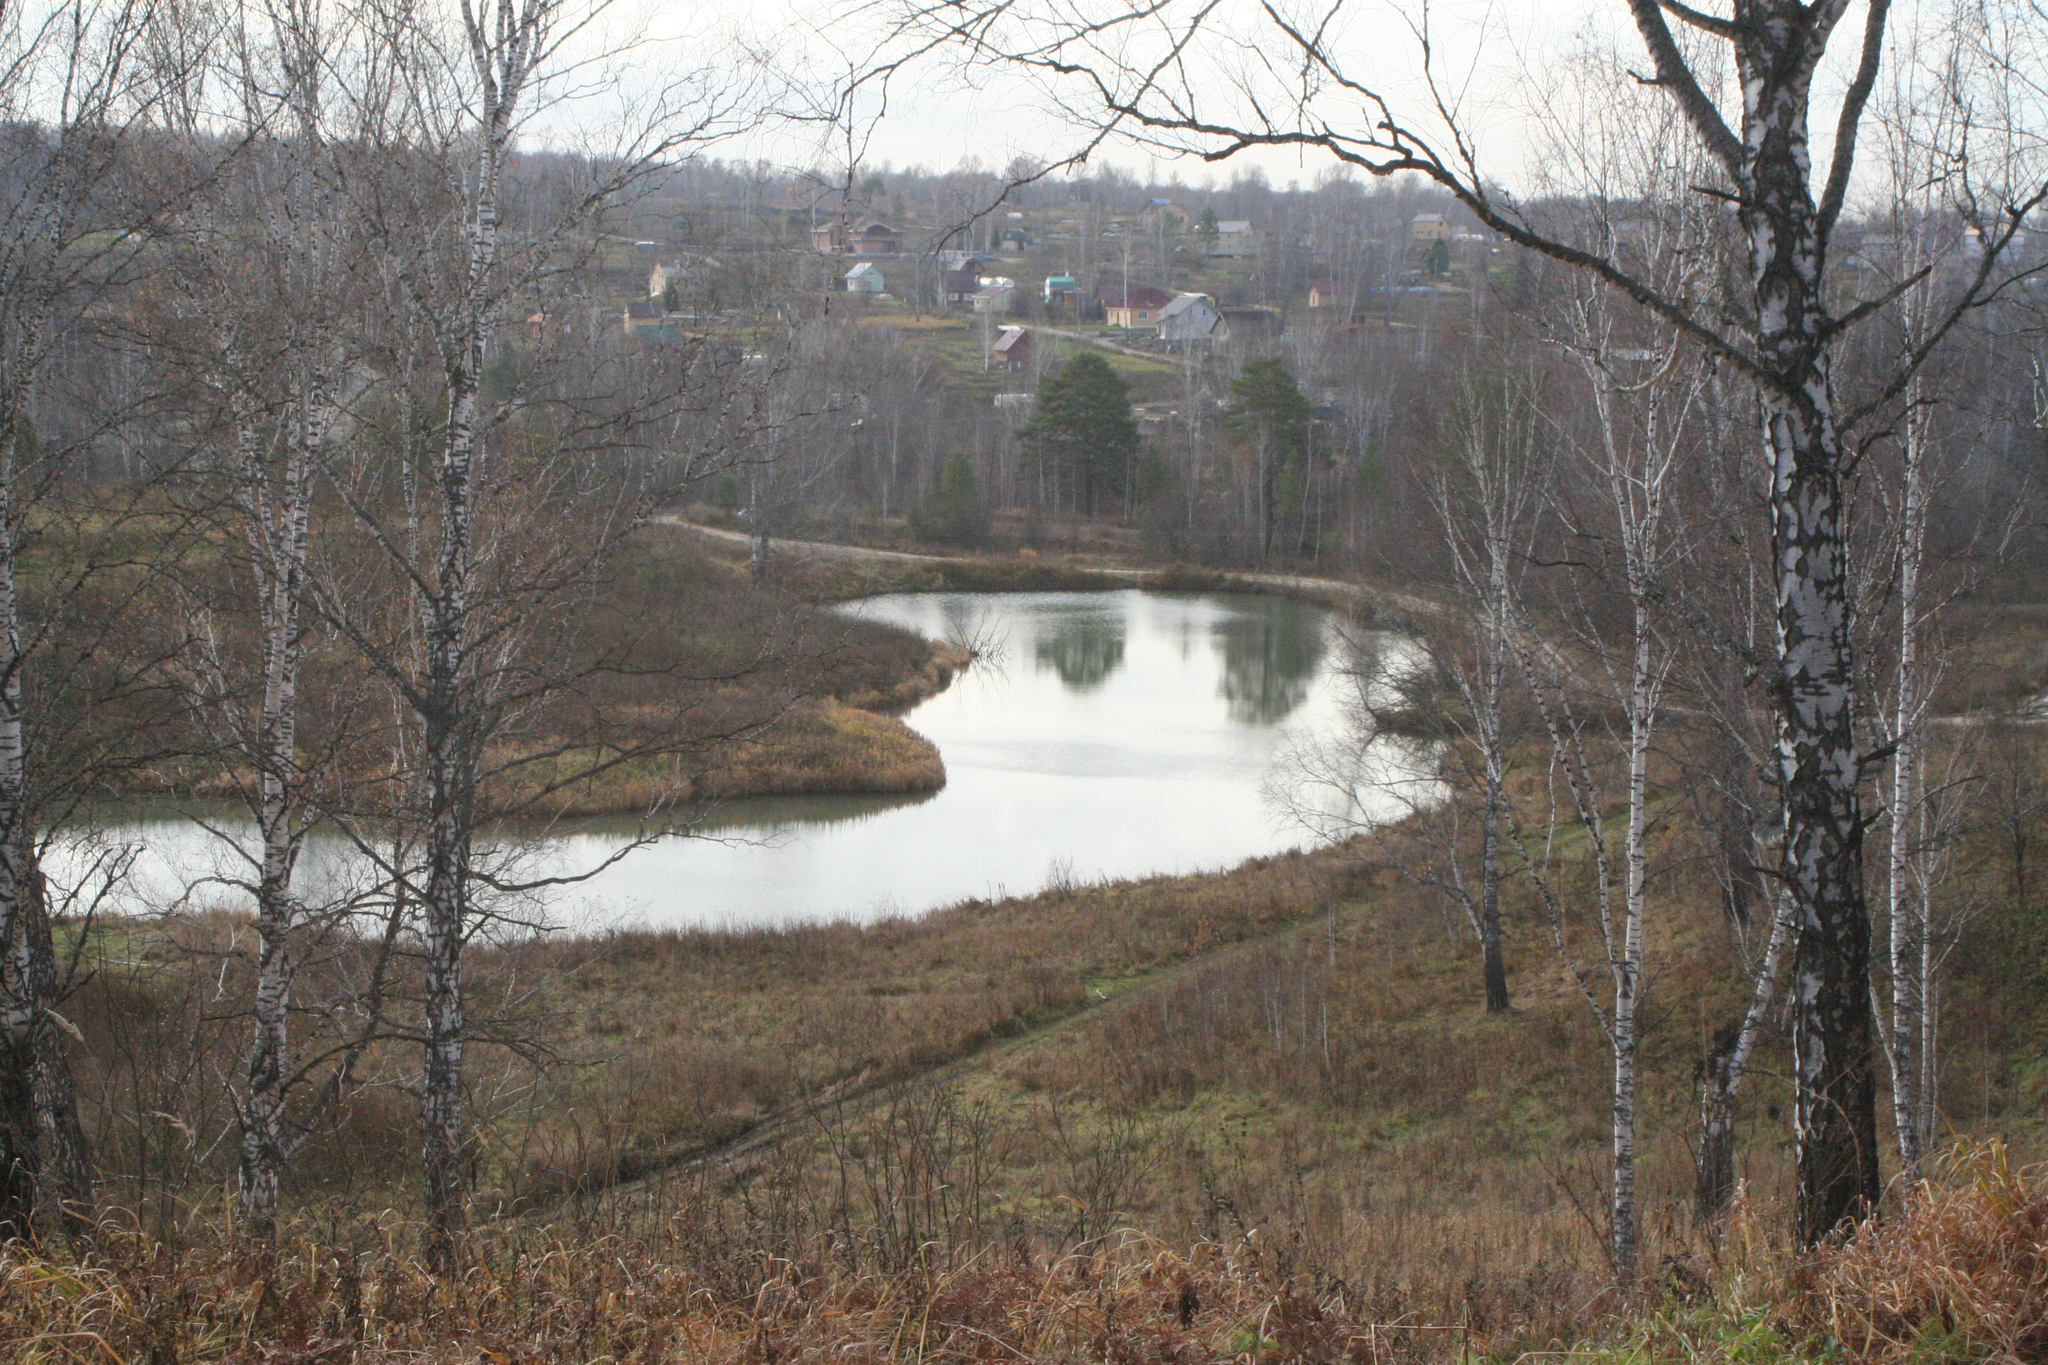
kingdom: Plantae
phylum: Tracheophyta
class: Magnoliopsida
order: Fagales
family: Betulaceae
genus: Betula
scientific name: Betula pendula
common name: Silver birch
